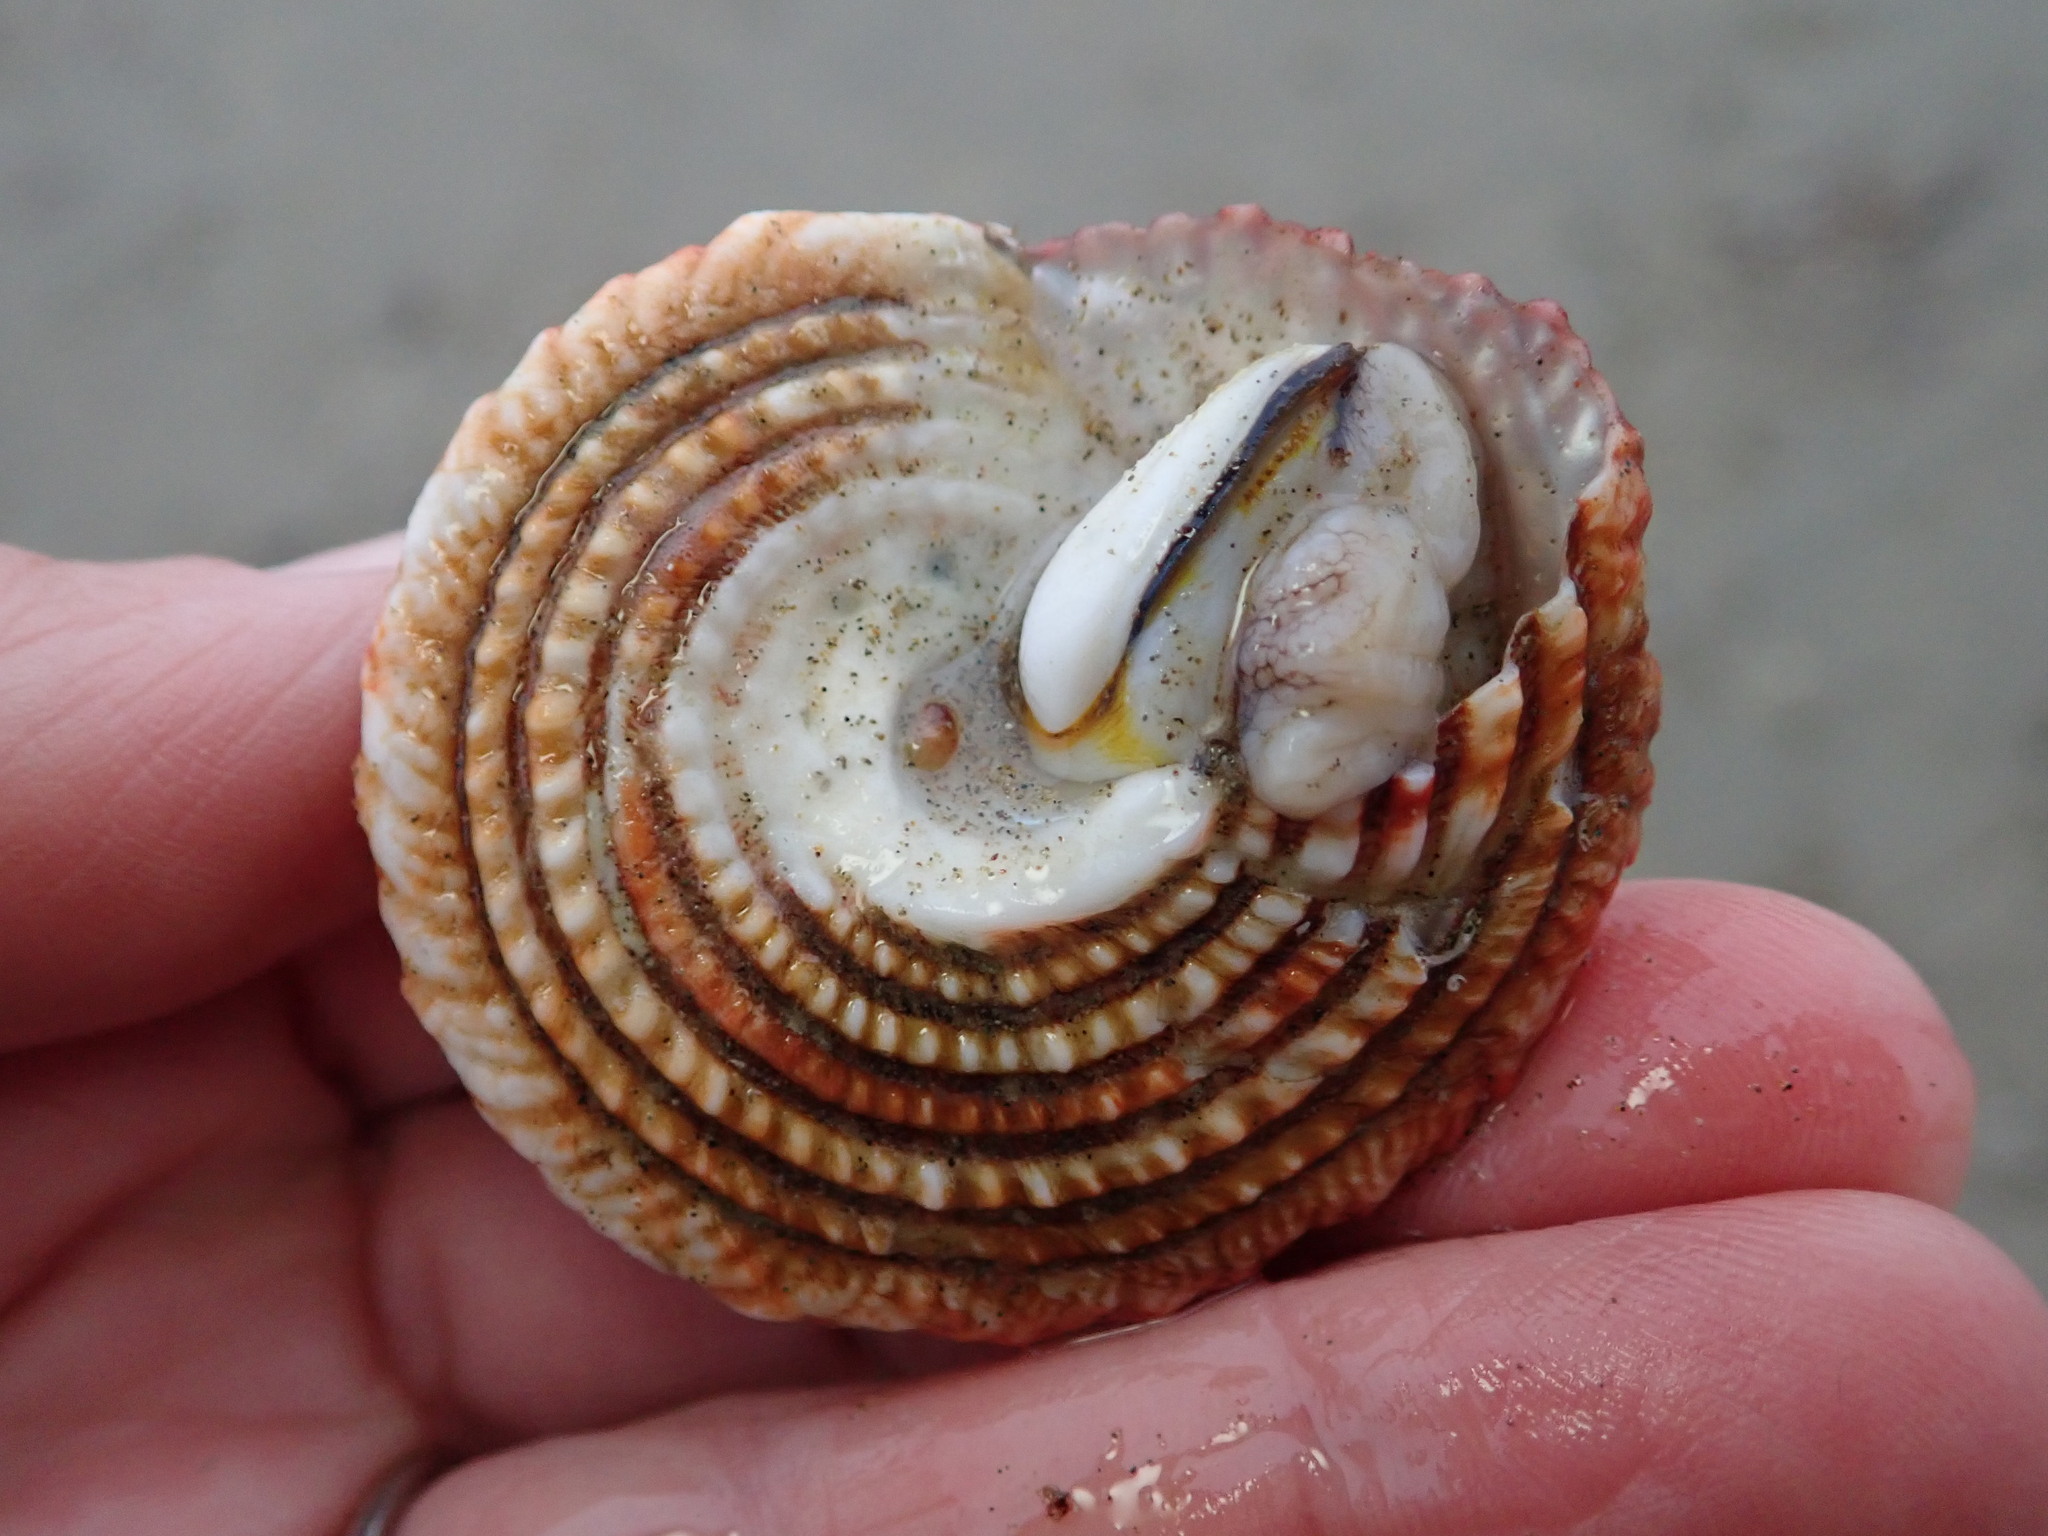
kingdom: Animalia
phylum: Mollusca
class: Gastropoda
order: Trochida
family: Turbinidae
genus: Pomaulax
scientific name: Pomaulax gibberosus
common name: Red turban
